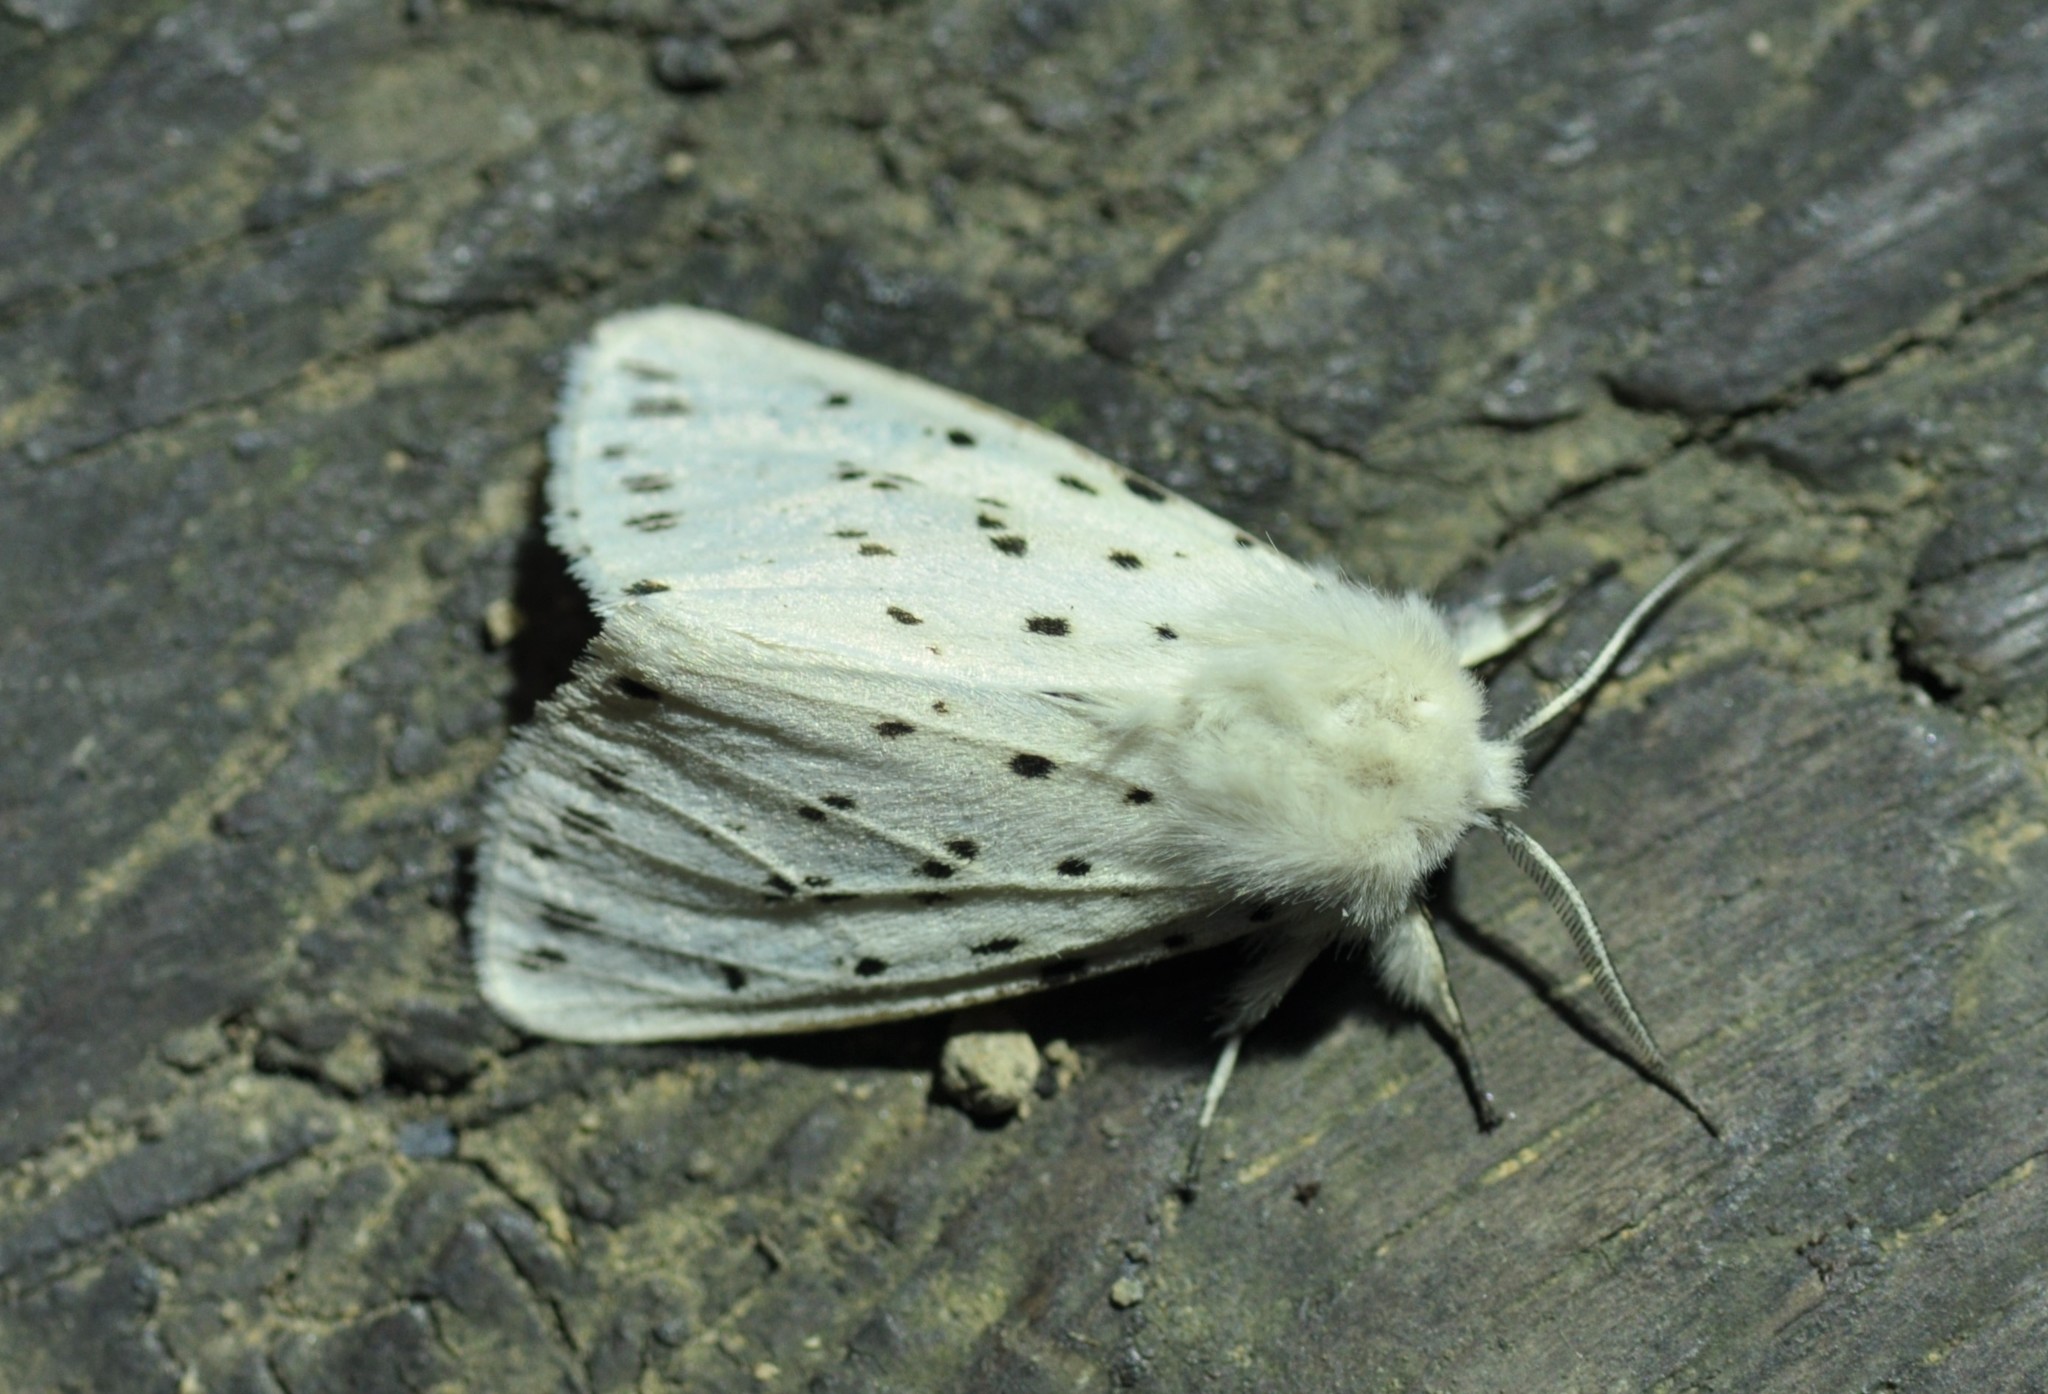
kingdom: Animalia
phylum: Arthropoda
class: Insecta
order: Lepidoptera
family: Erebidae
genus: Spilosoma
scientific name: Spilosoma lubricipeda
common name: White ermine
